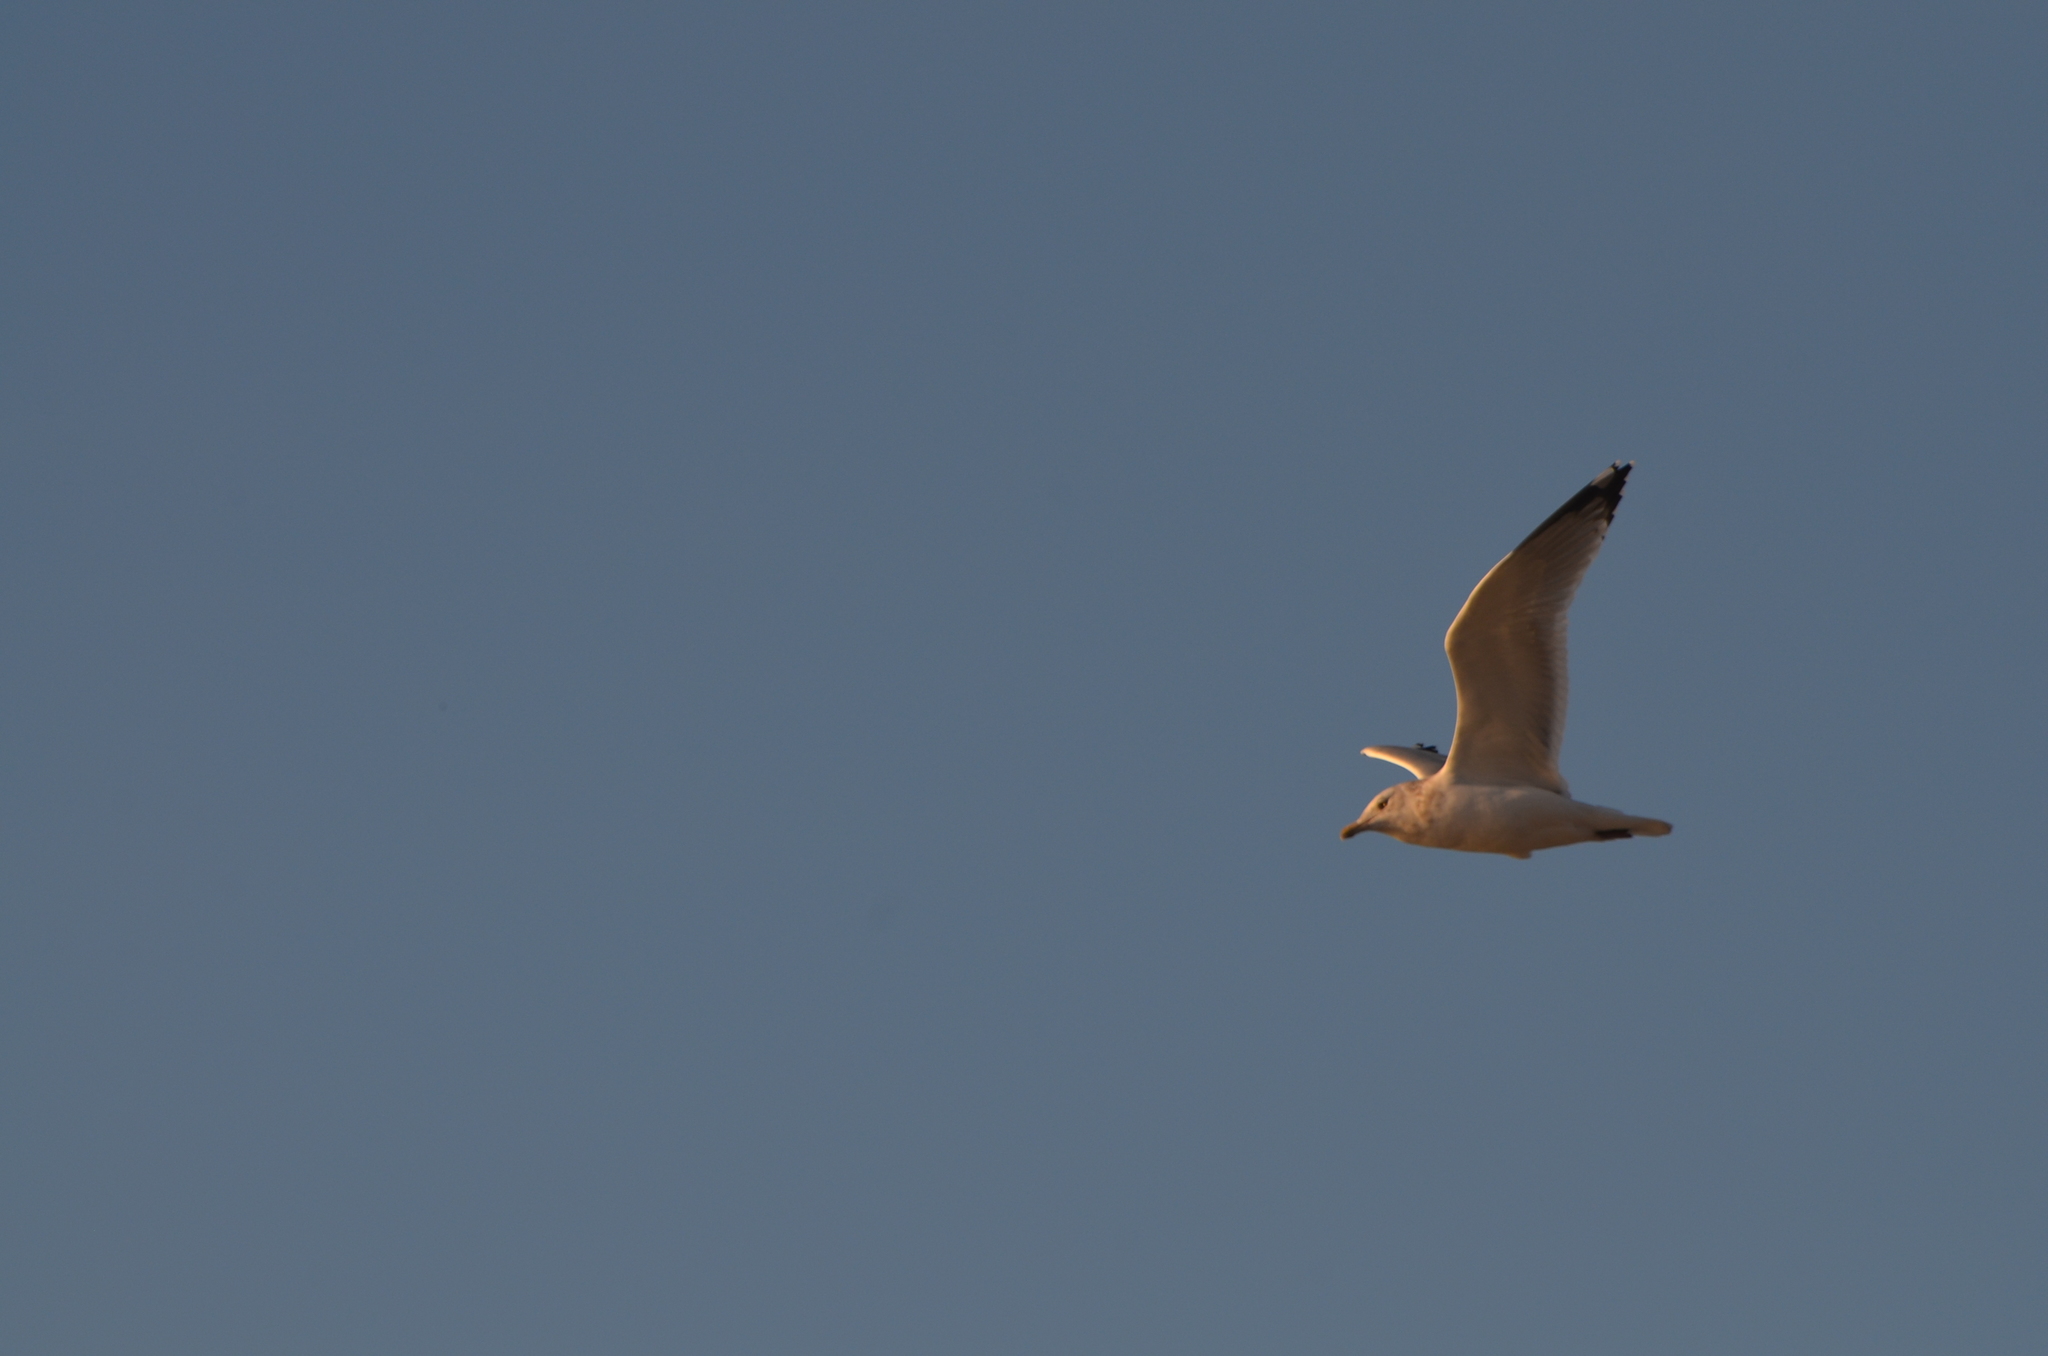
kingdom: Animalia
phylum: Chordata
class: Aves
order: Charadriiformes
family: Laridae
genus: Larus
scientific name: Larus argentatus
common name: Herring gull
